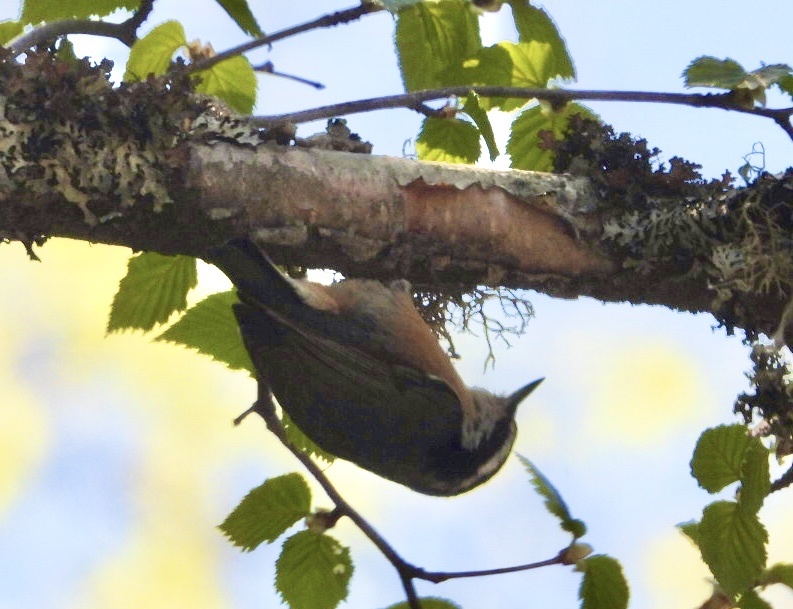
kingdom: Animalia
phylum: Chordata
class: Aves
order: Passeriformes
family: Sittidae
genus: Sitta
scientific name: Sitta canadensis
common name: Red-breasted nuthatch
